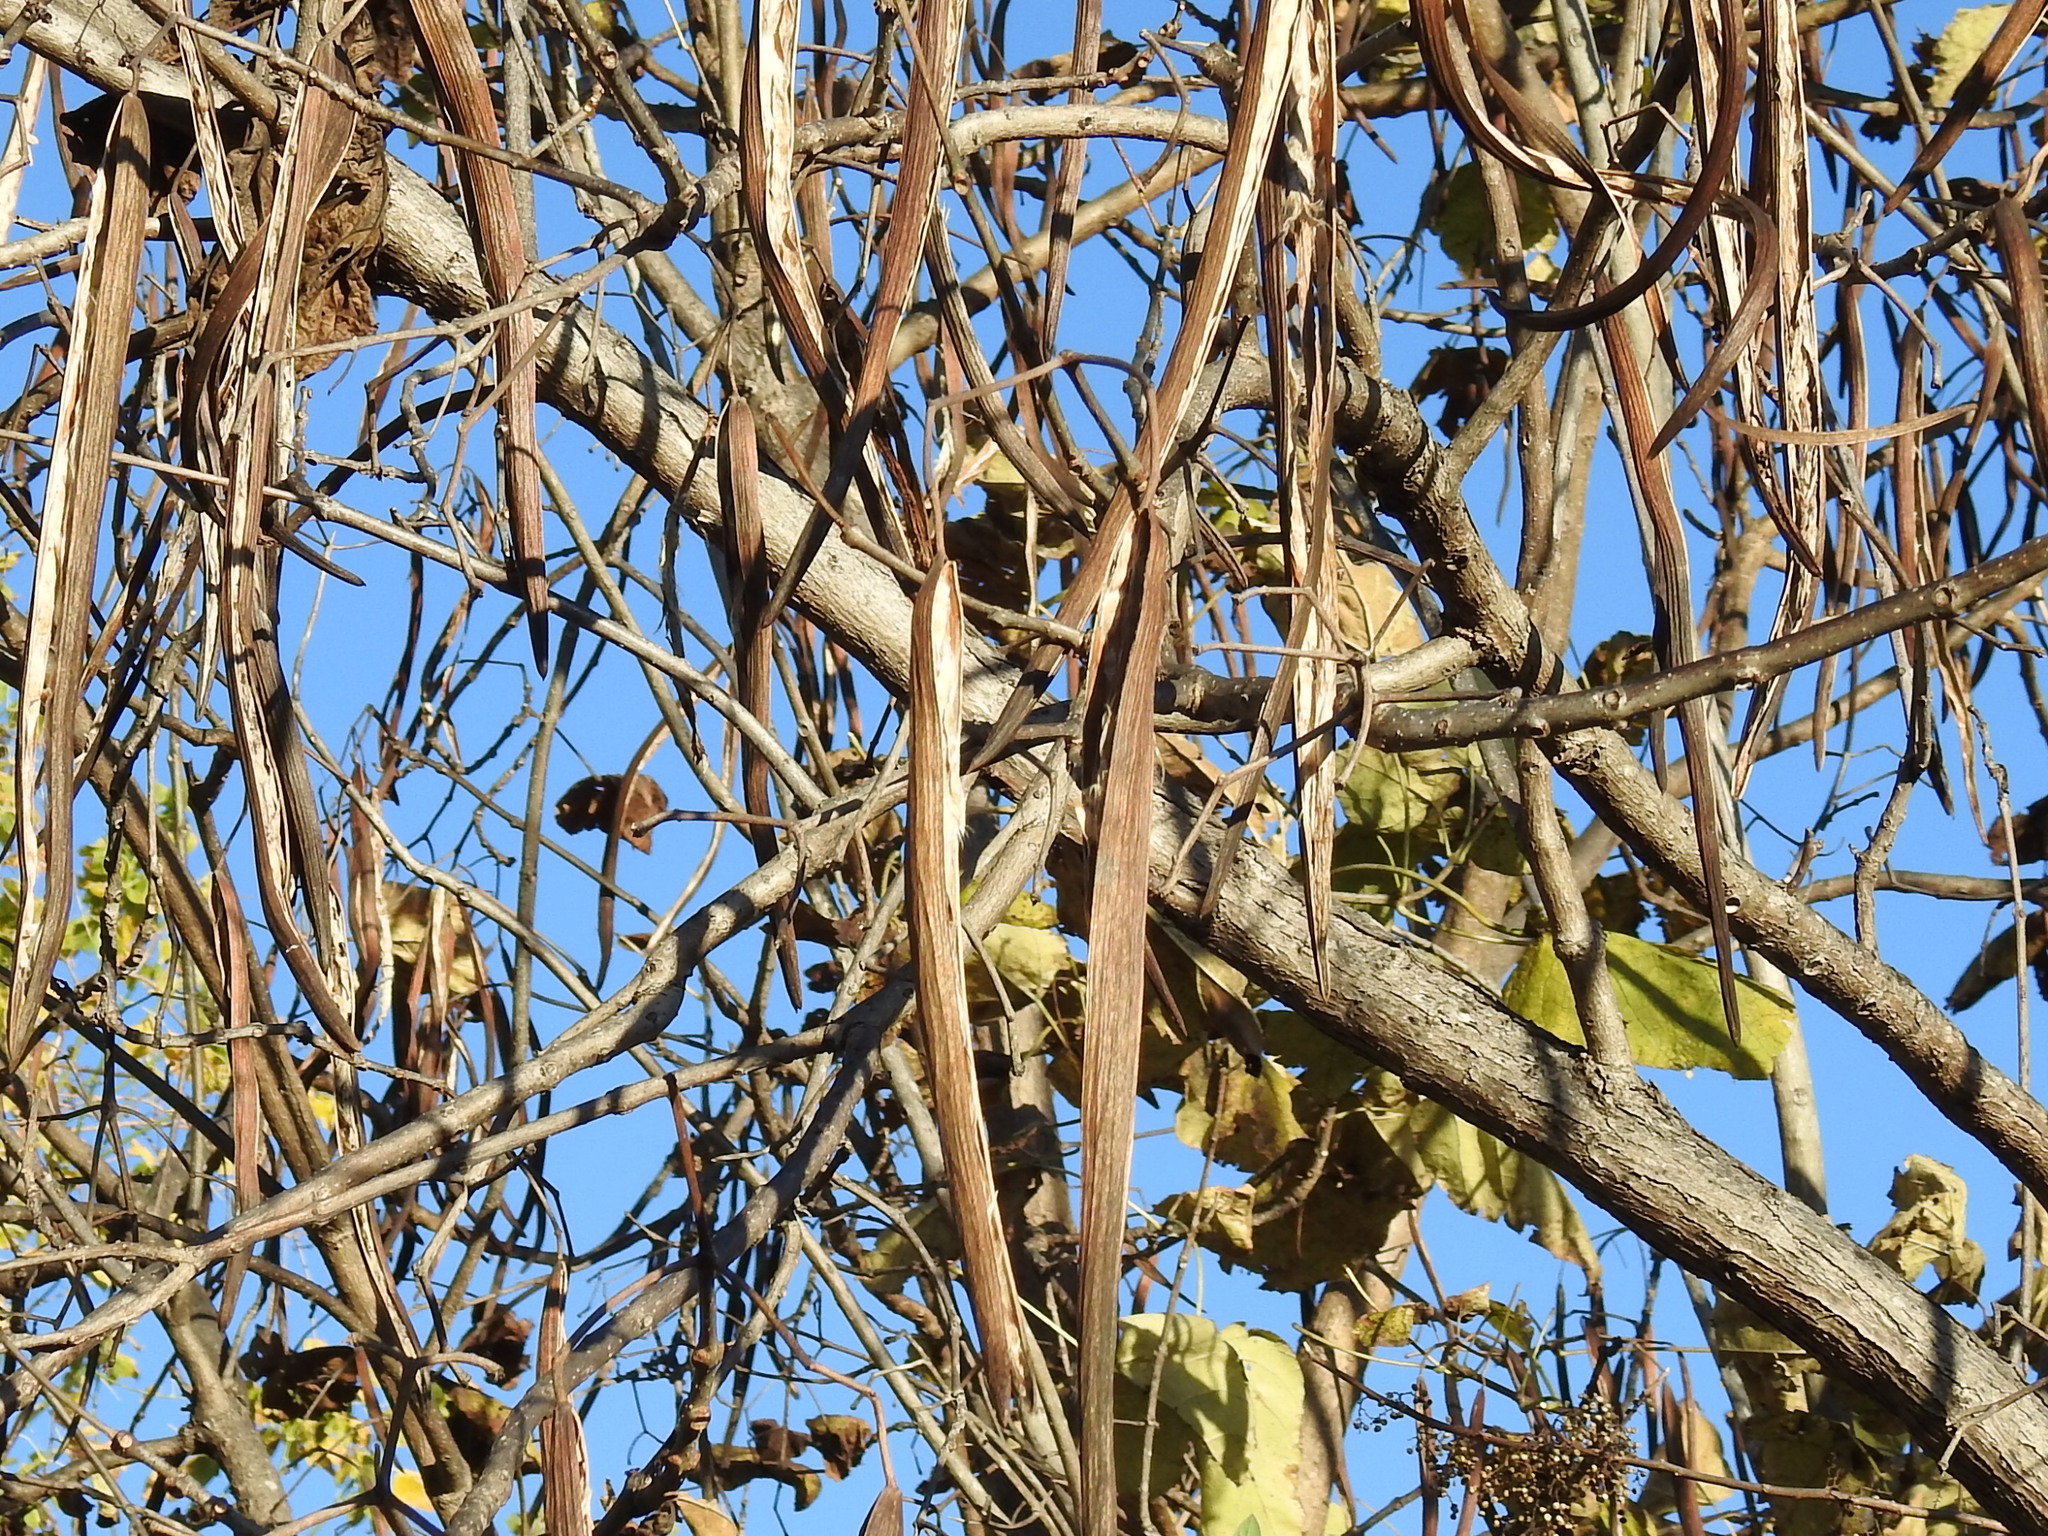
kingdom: Plantae
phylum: Tracheophyta
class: Magnoliopsida
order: Lamiales
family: Bignoniaceae
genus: Catalpa
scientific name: Catalpa speciosa
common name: Northern catalpa
